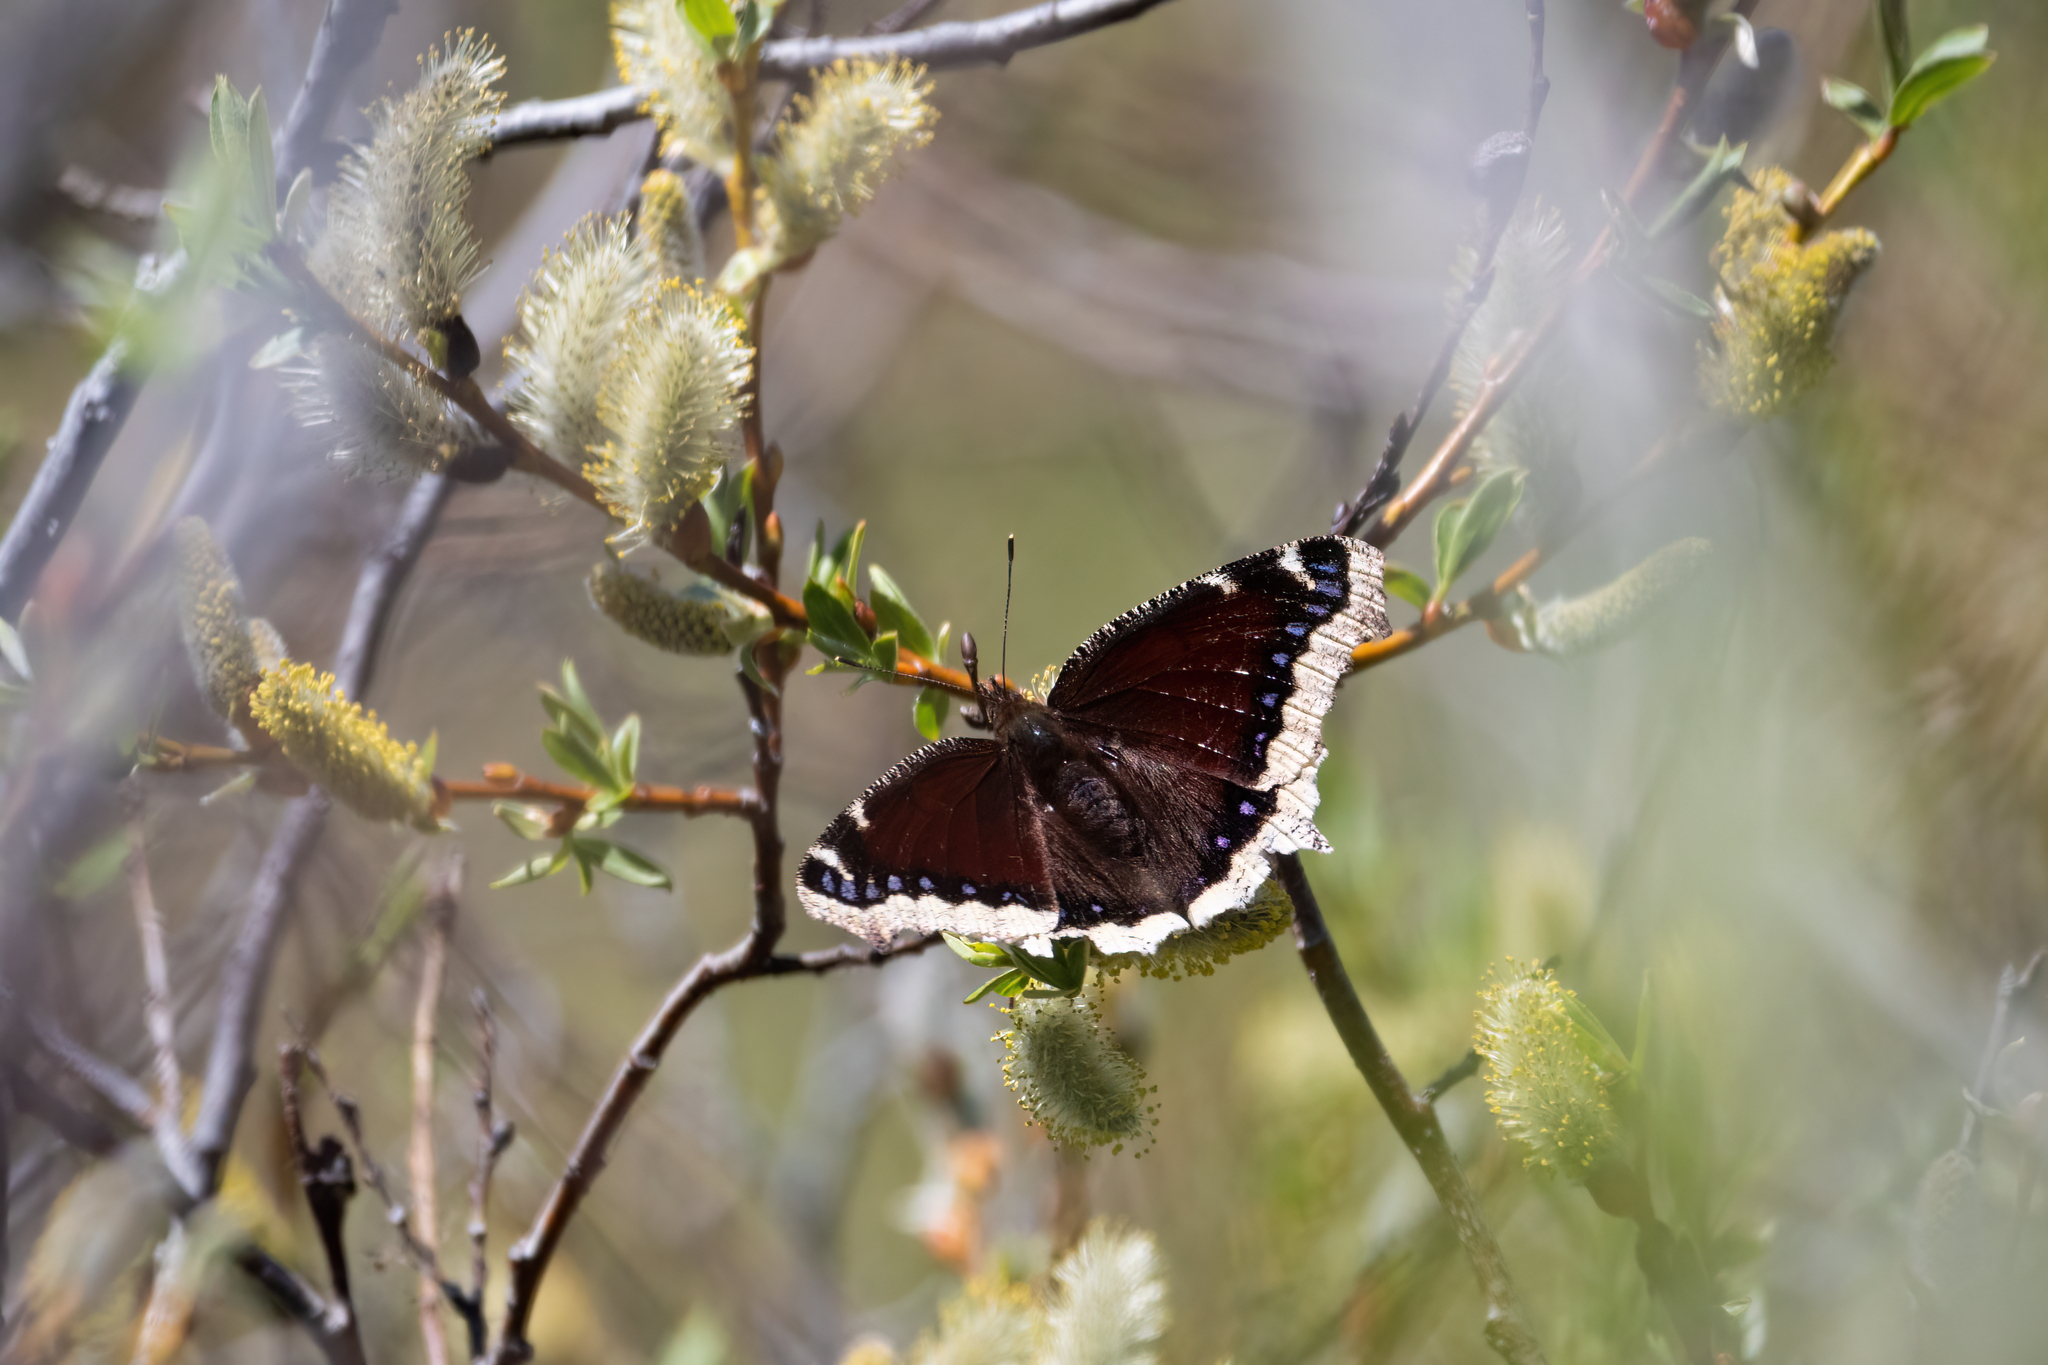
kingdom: Animalia
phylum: Arthropoda
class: Insecta
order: Lepidoptera
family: Nymphalidae
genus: Nymphalis
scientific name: Nymphalis antiopa
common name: Camberwell beauty
